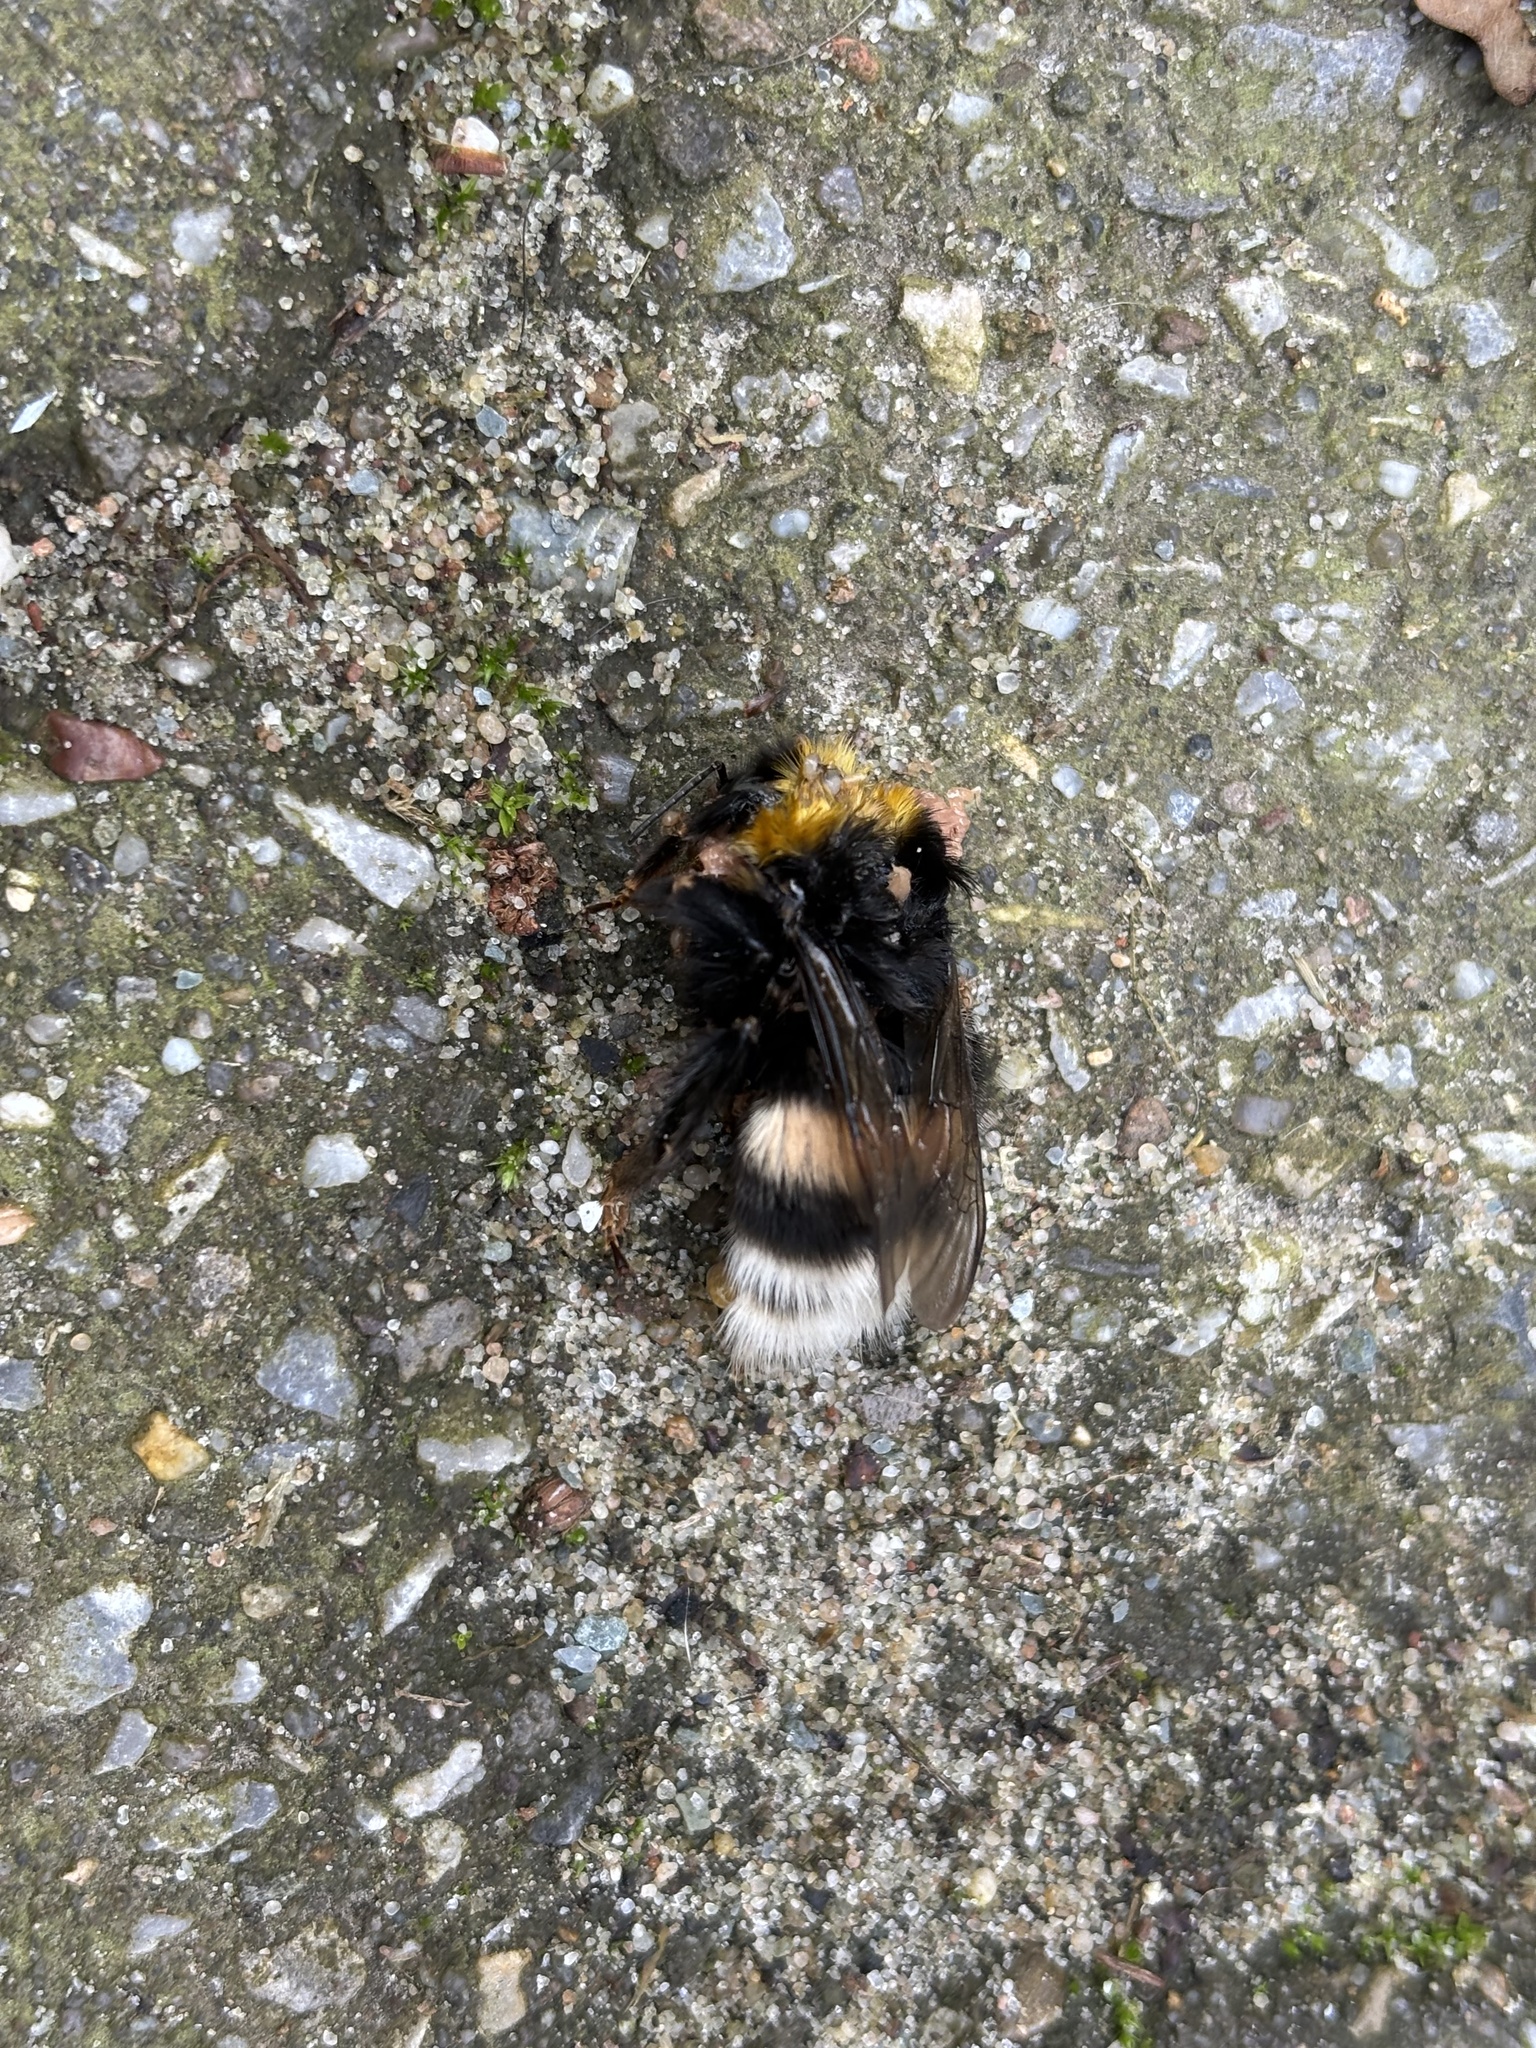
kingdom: Animalia
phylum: Arthropoda
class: Insecta
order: Hymenoptera
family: Apidae
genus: Bombus
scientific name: Bombus
